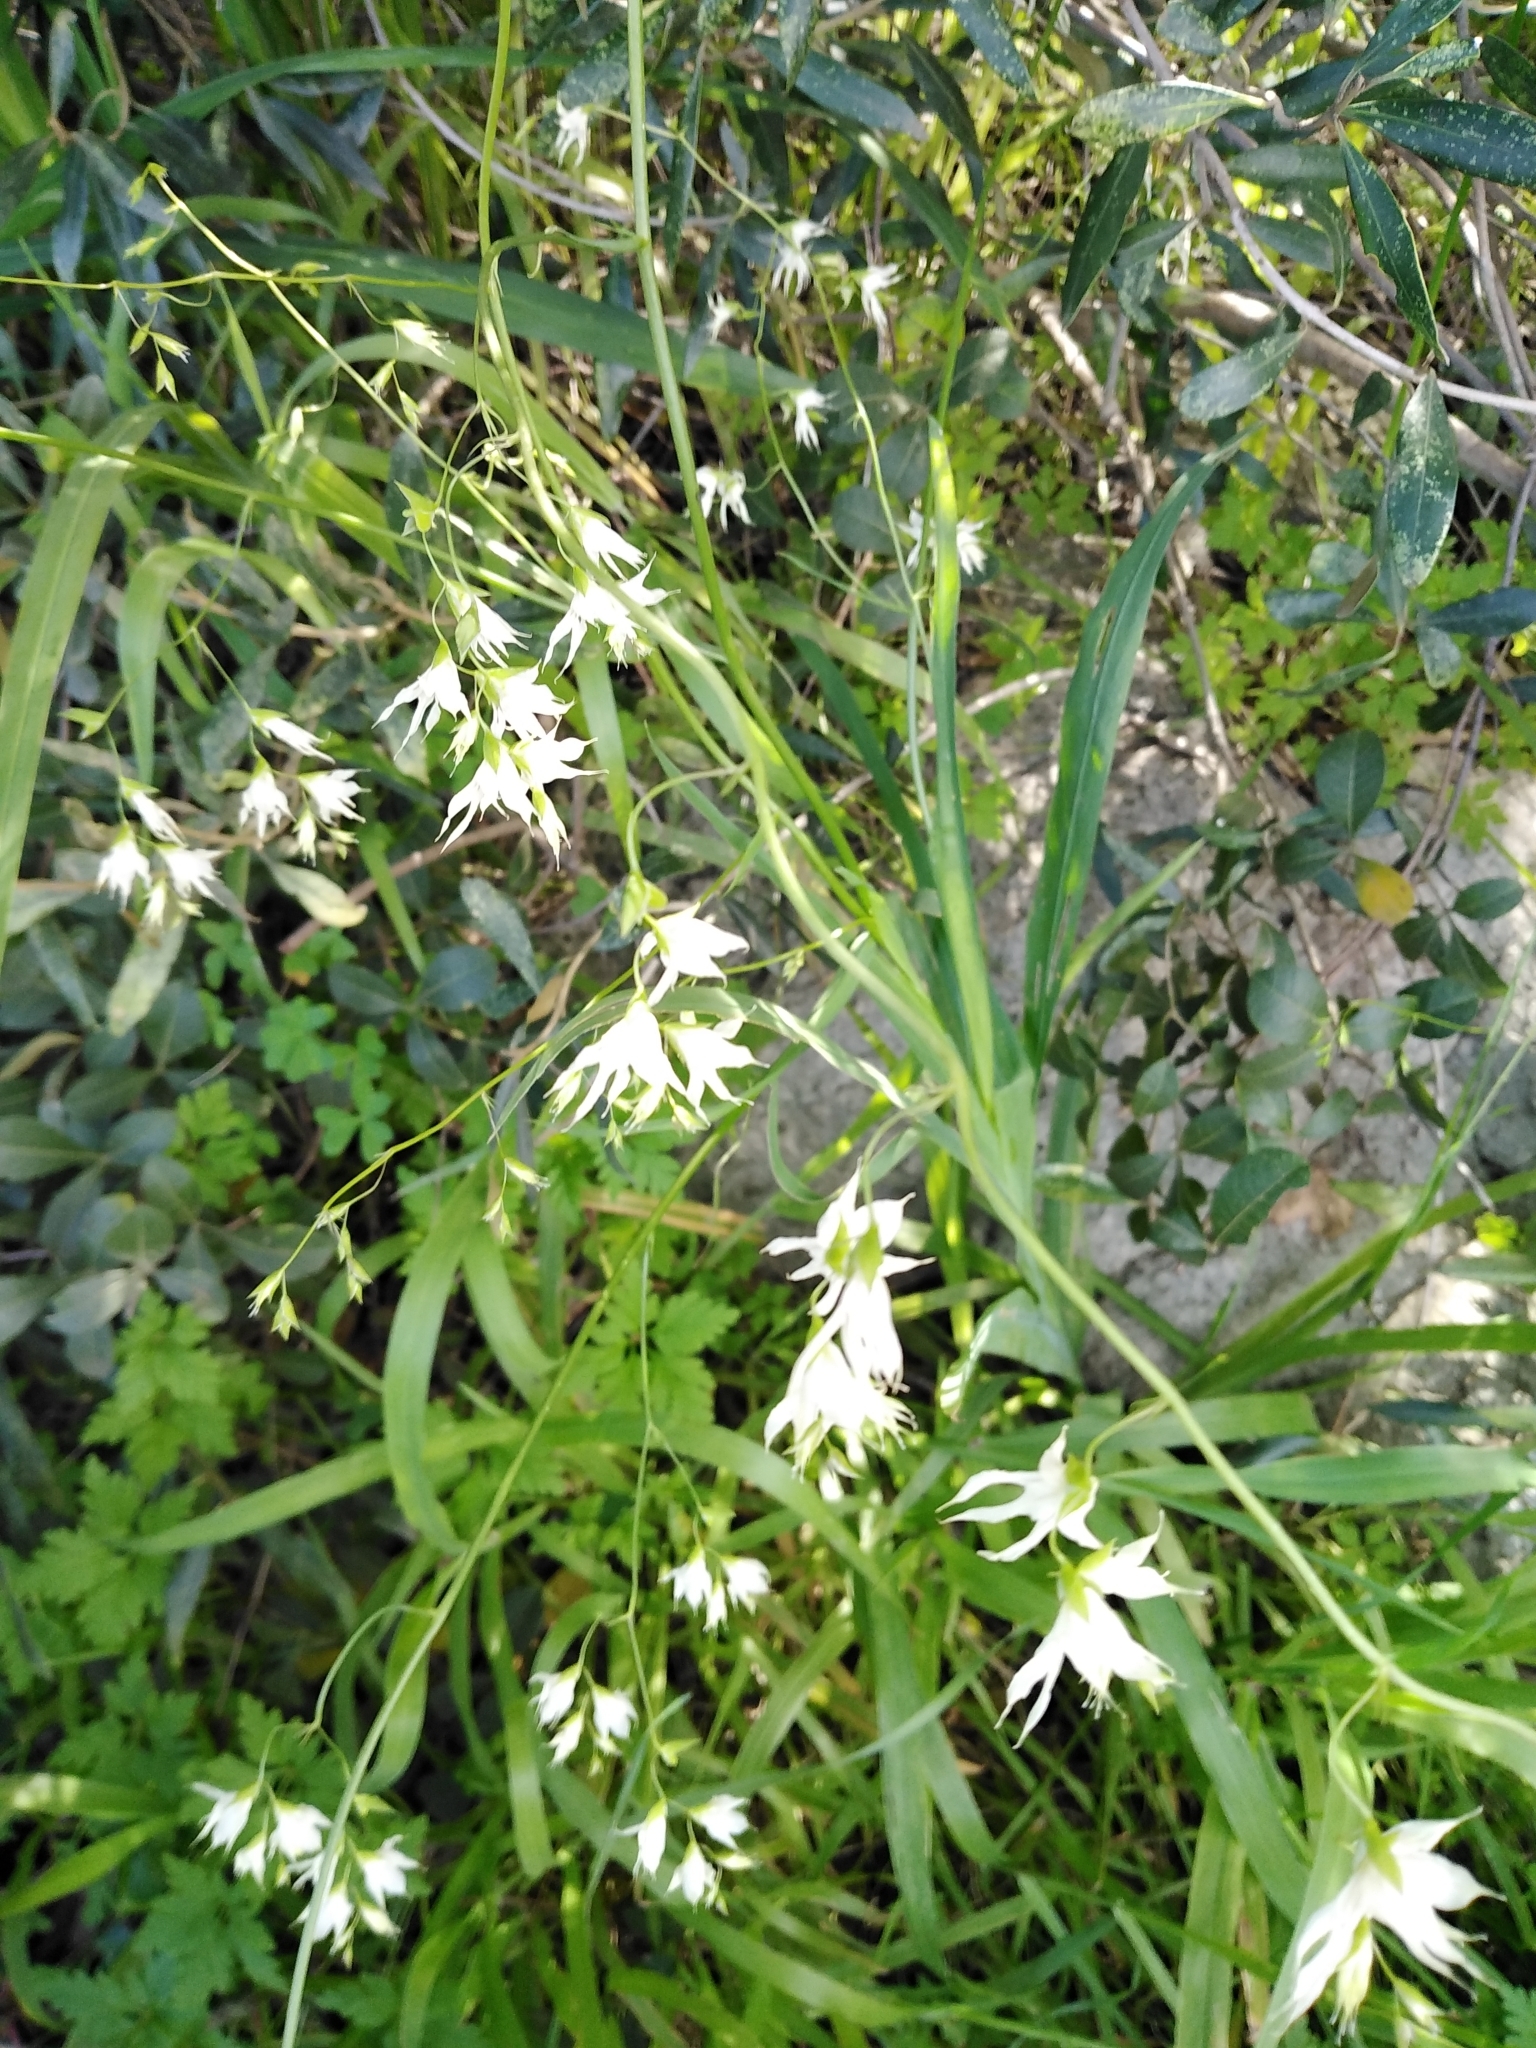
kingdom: Plantae
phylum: Tracheophyta
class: Liliopsida
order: Asparagales
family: Iridaceae
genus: Melasphaerula
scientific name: Melasphaerula graminea
